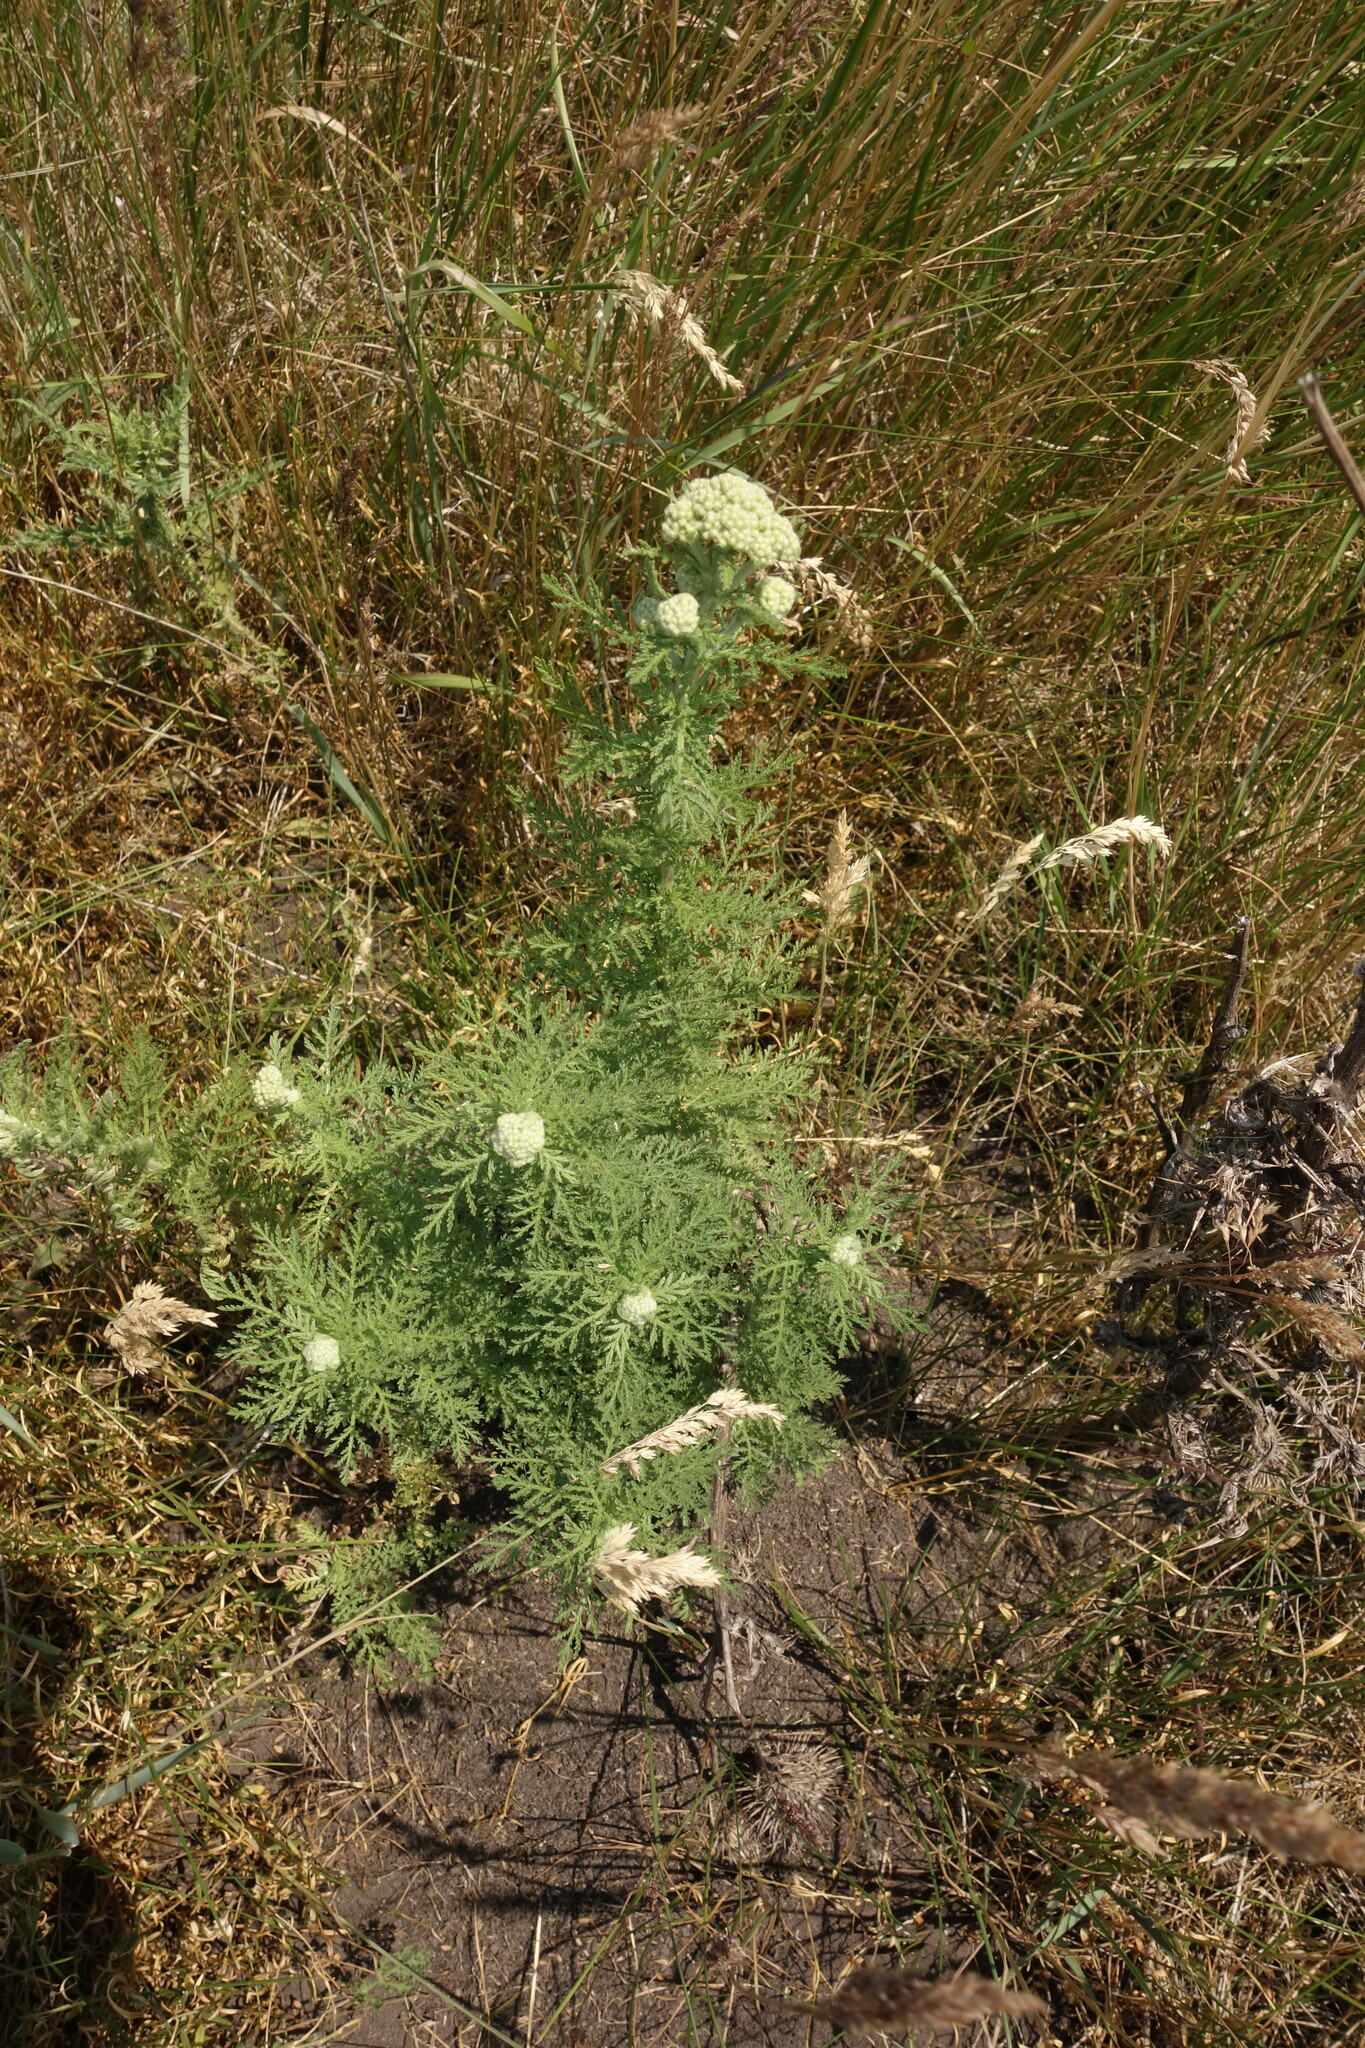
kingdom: Plantae
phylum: Tracheophyta
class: Magnoliopsida
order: Asterales
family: Asteraceae
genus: Achillea
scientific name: Achillea nobilis
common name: Noble yarrow
